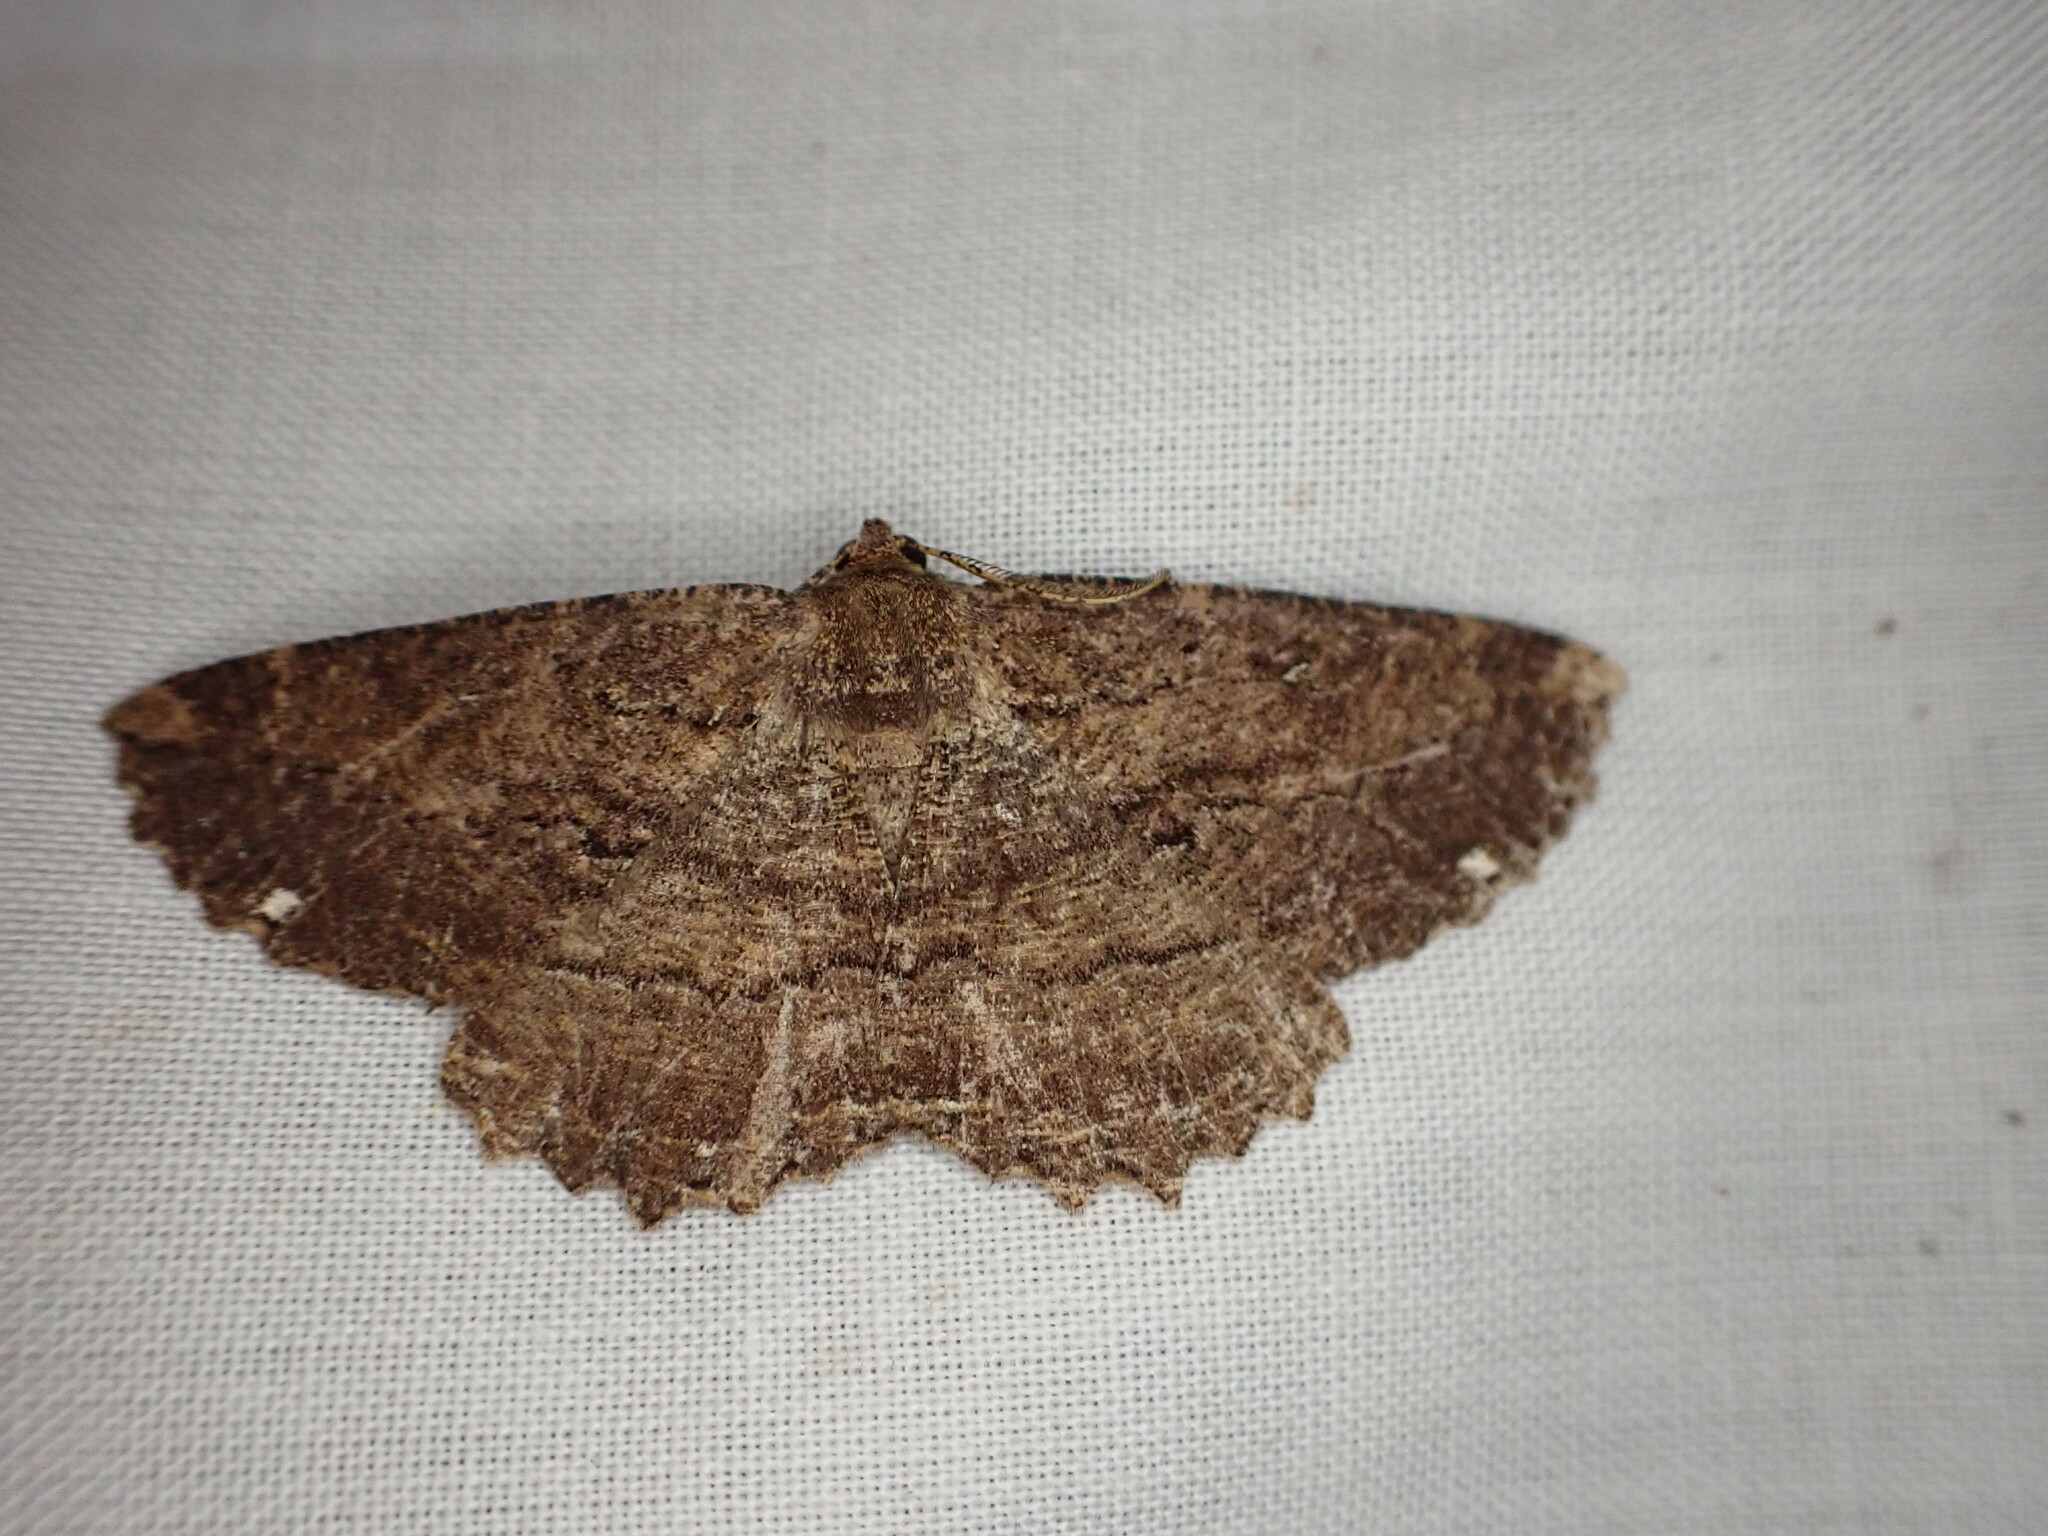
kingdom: Animalia
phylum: Arthropoda
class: Insecta
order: Lepidoptera
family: Geometridae
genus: Gellonia
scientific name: Gellonia dejectaria
